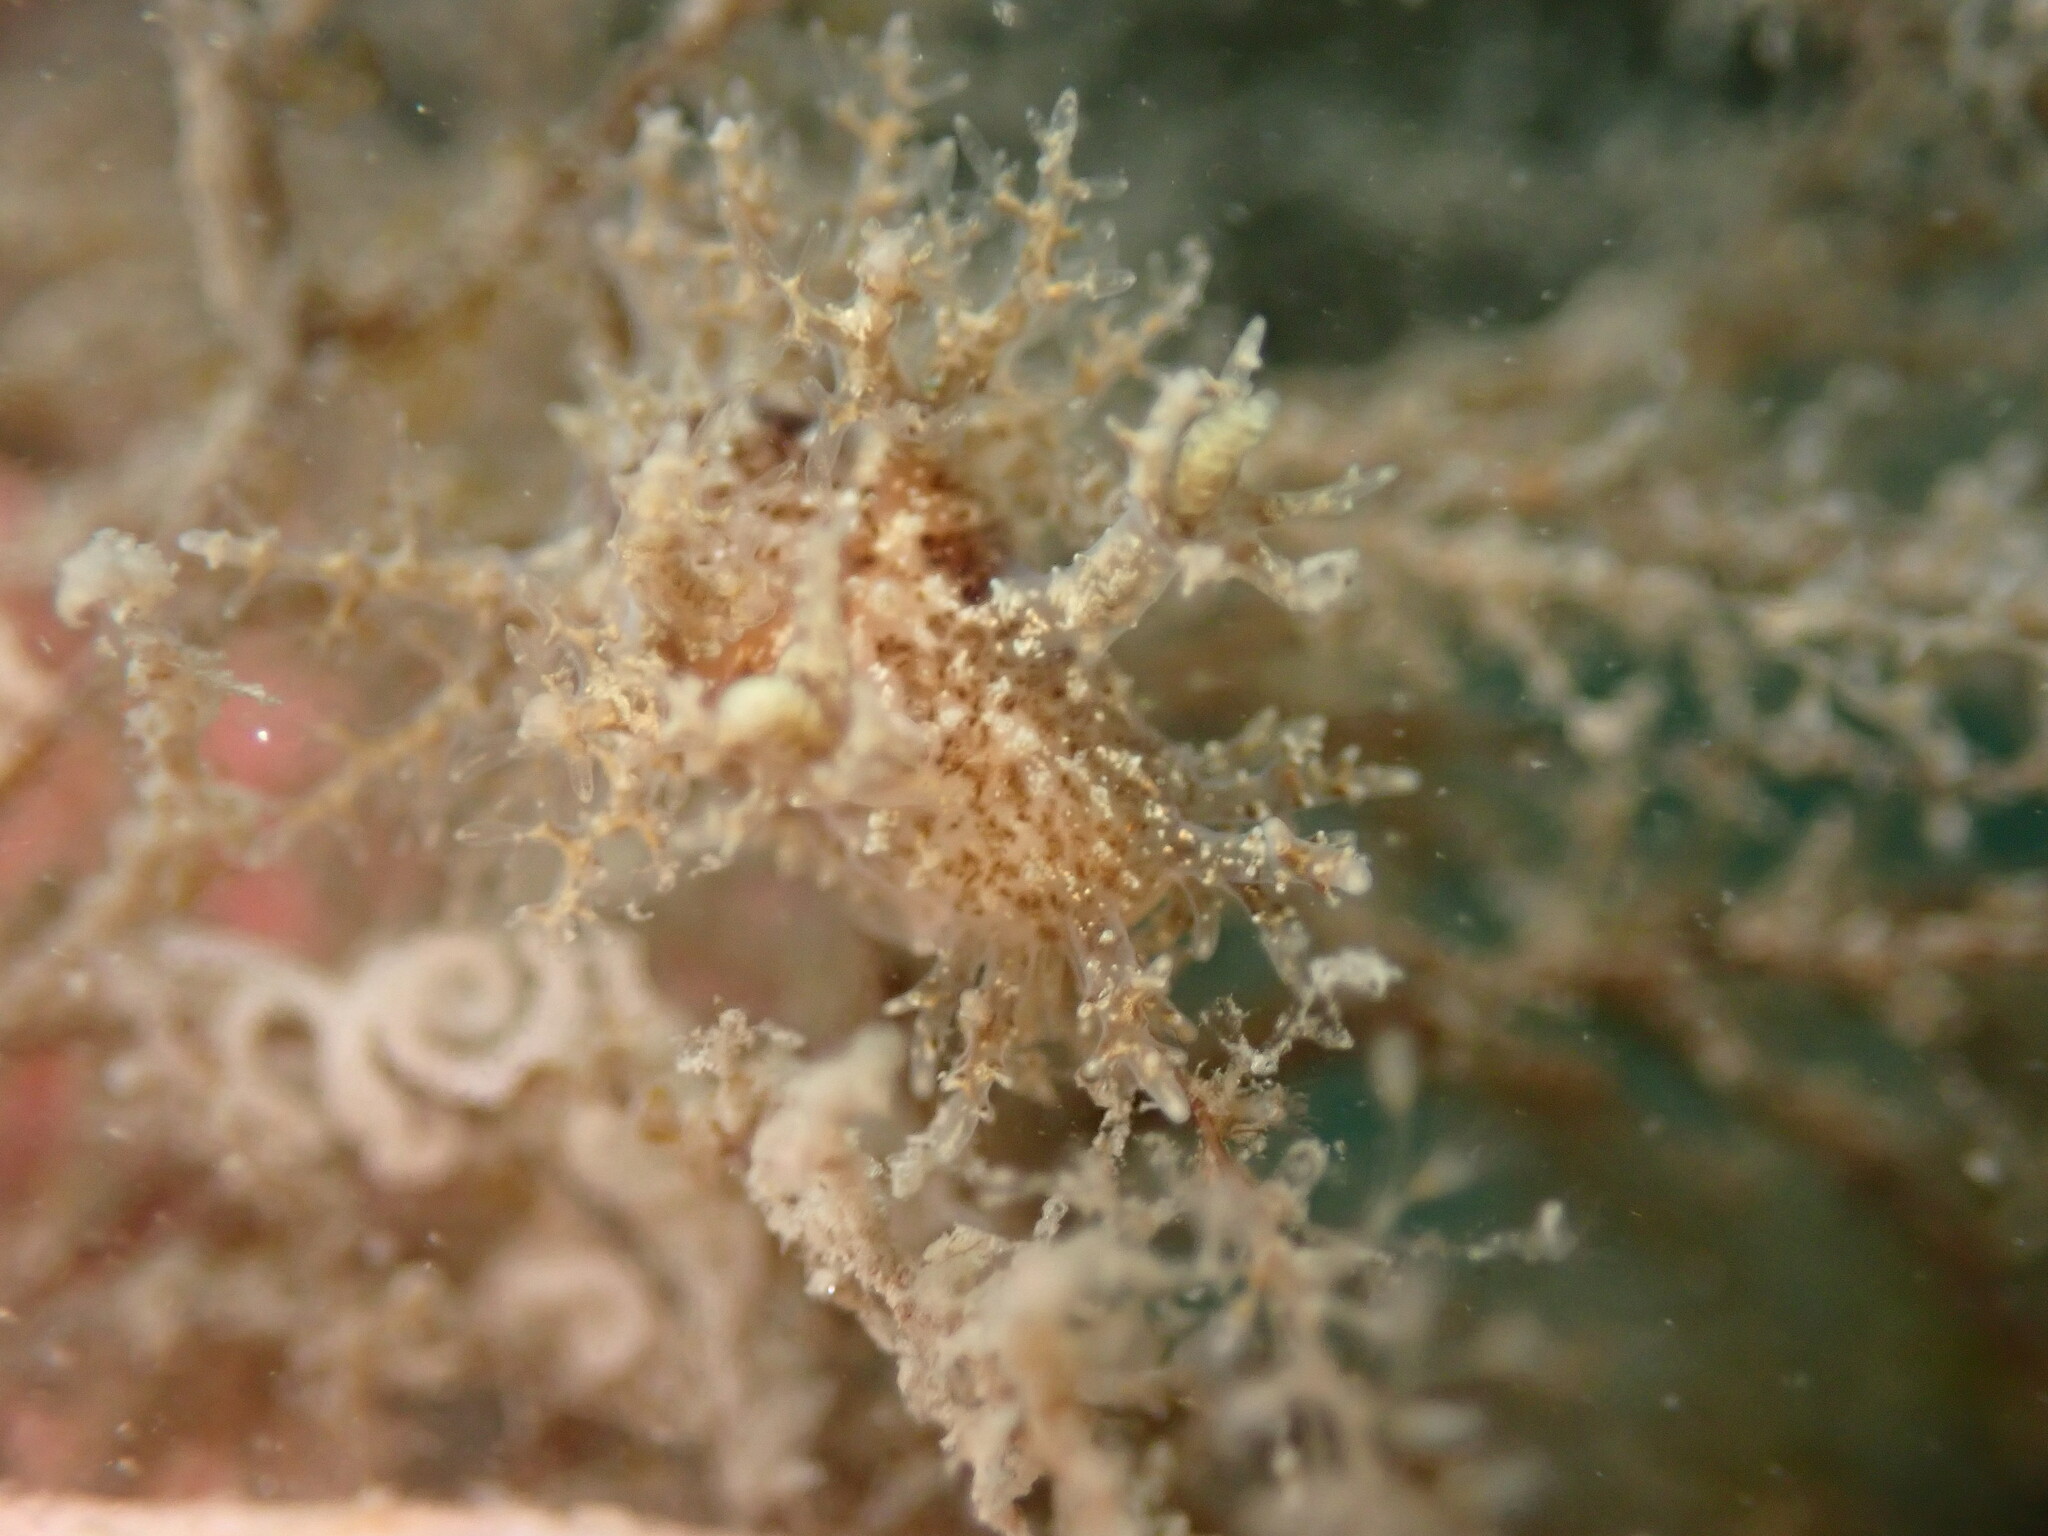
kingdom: Animalia
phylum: Mollusca
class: Gastropoda
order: Nudibranchia
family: Dendronotidae
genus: Dendronotus
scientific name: Dendronotus venustus
